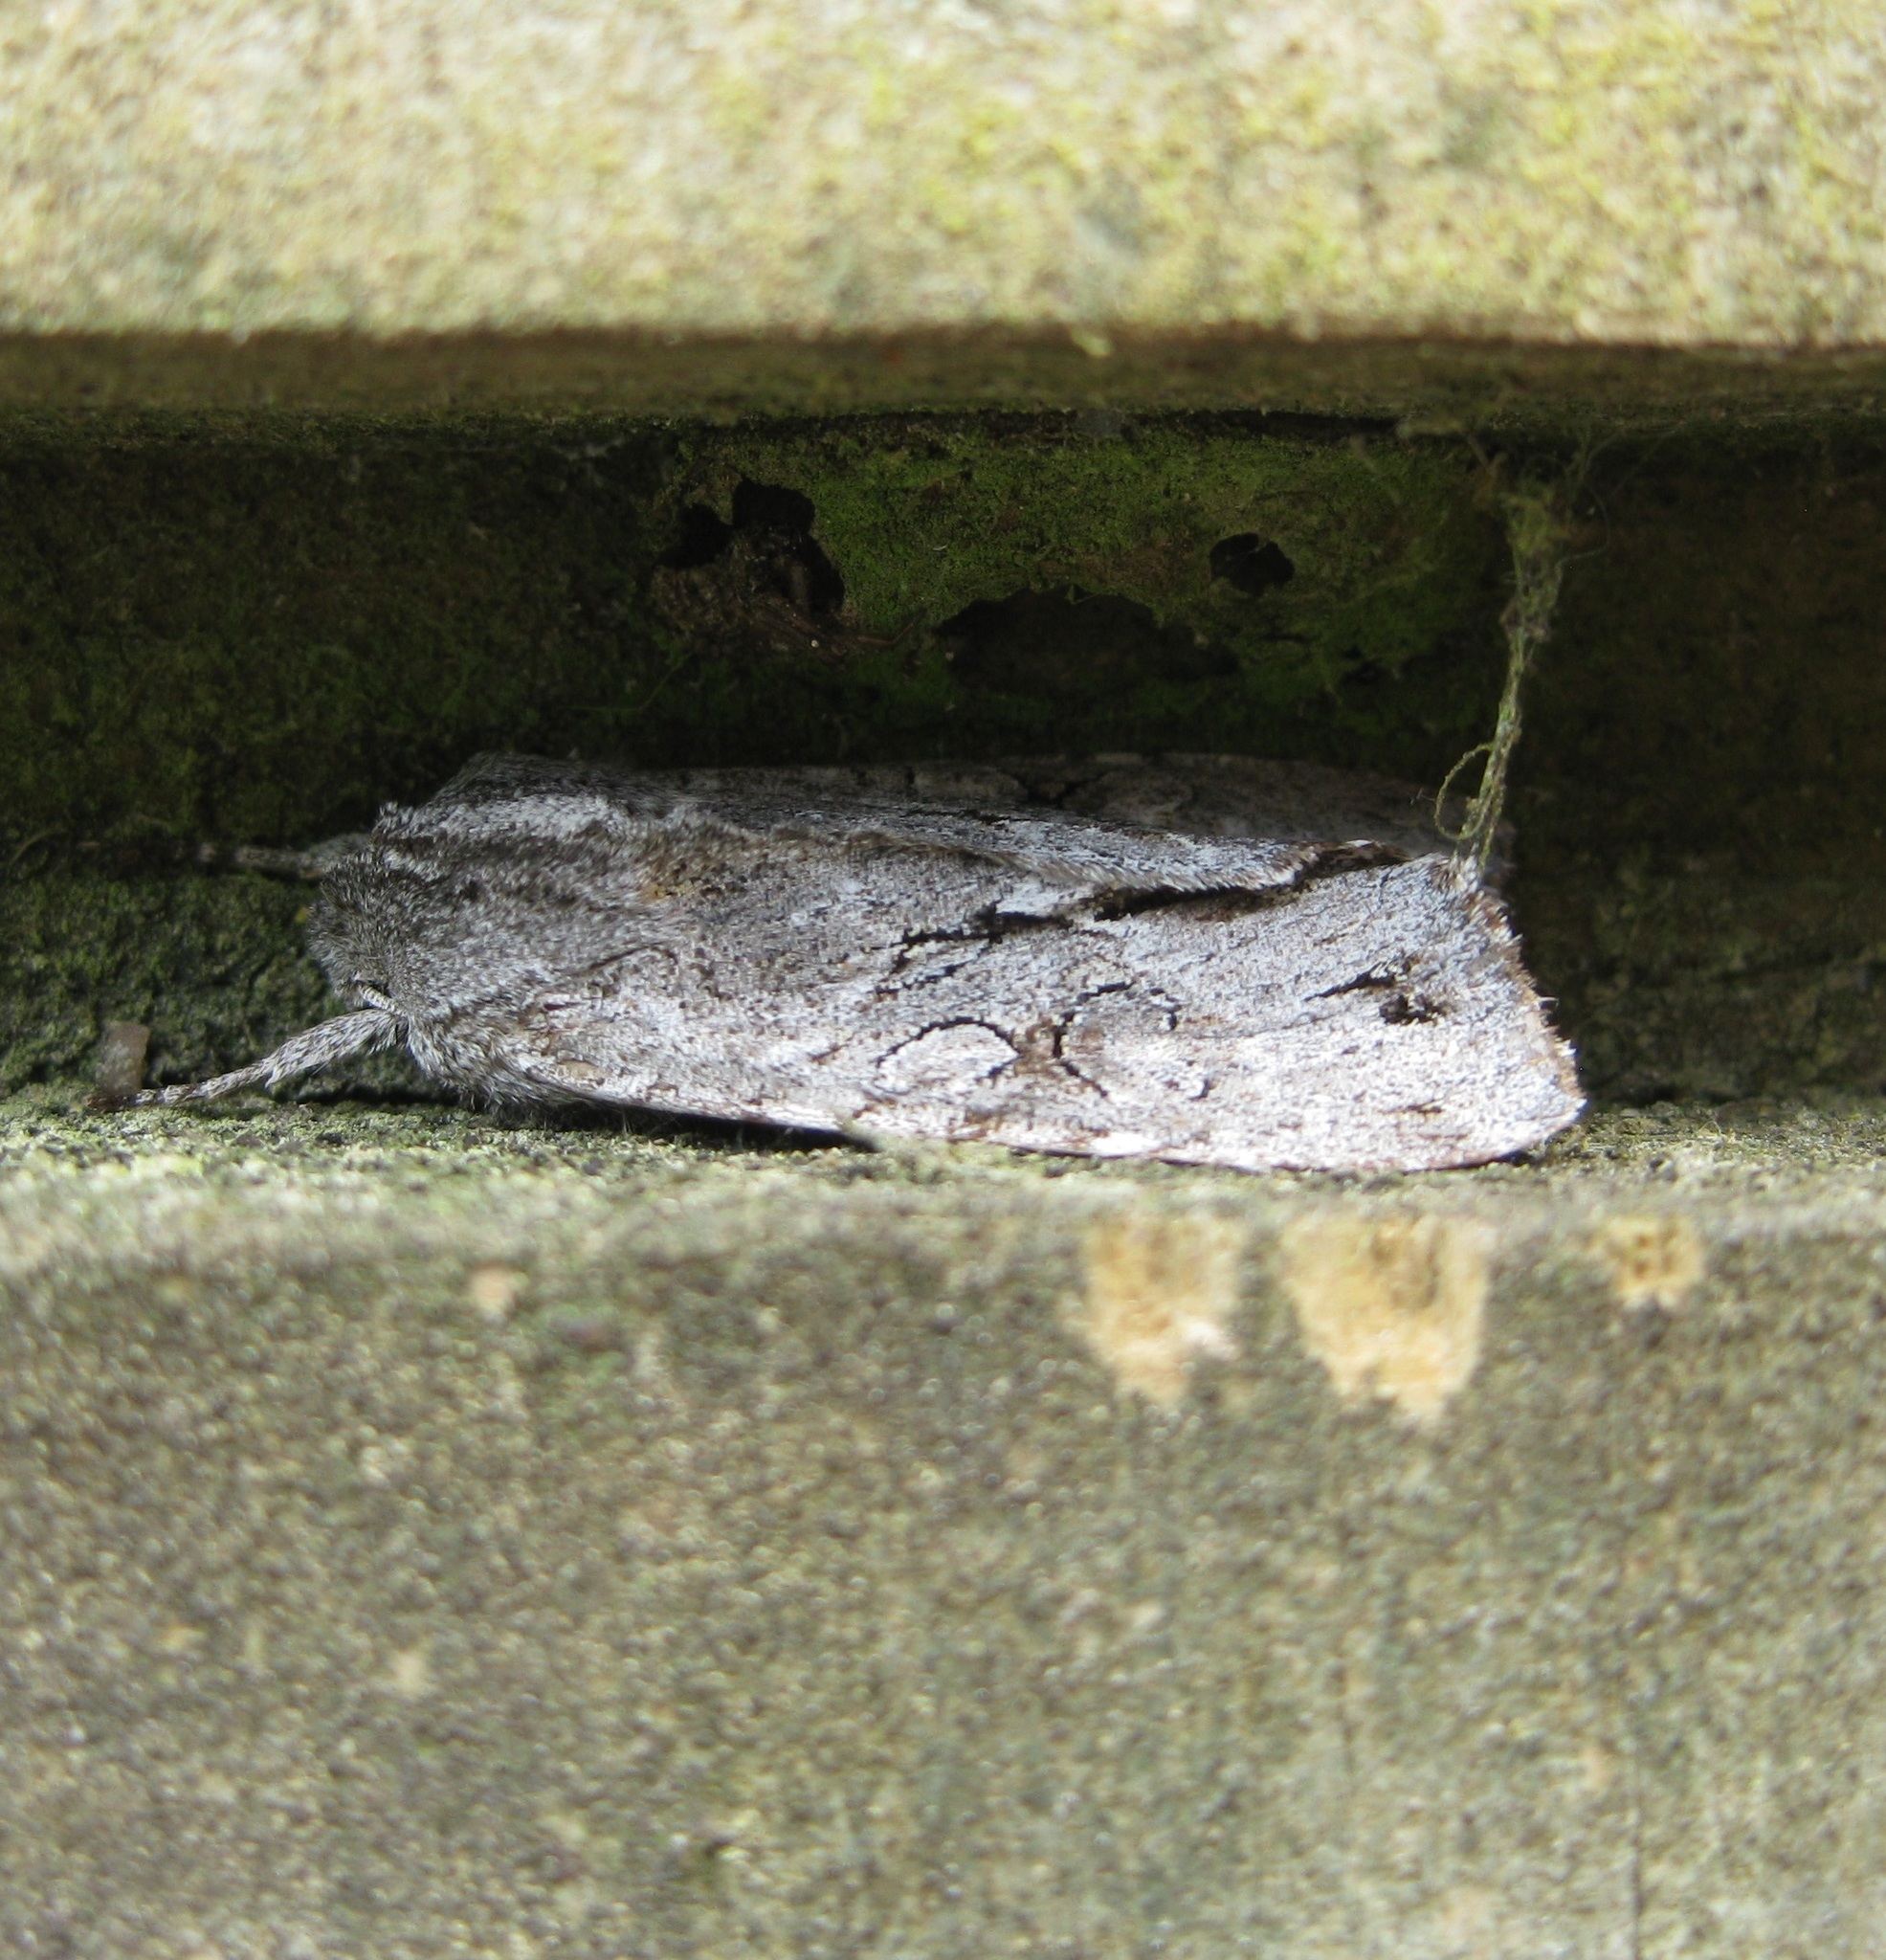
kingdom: Animalia
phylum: Arthropoda
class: Insecta
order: Lepidoptera
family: Noctuidae
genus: Ichneutica
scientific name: Ichneutica
